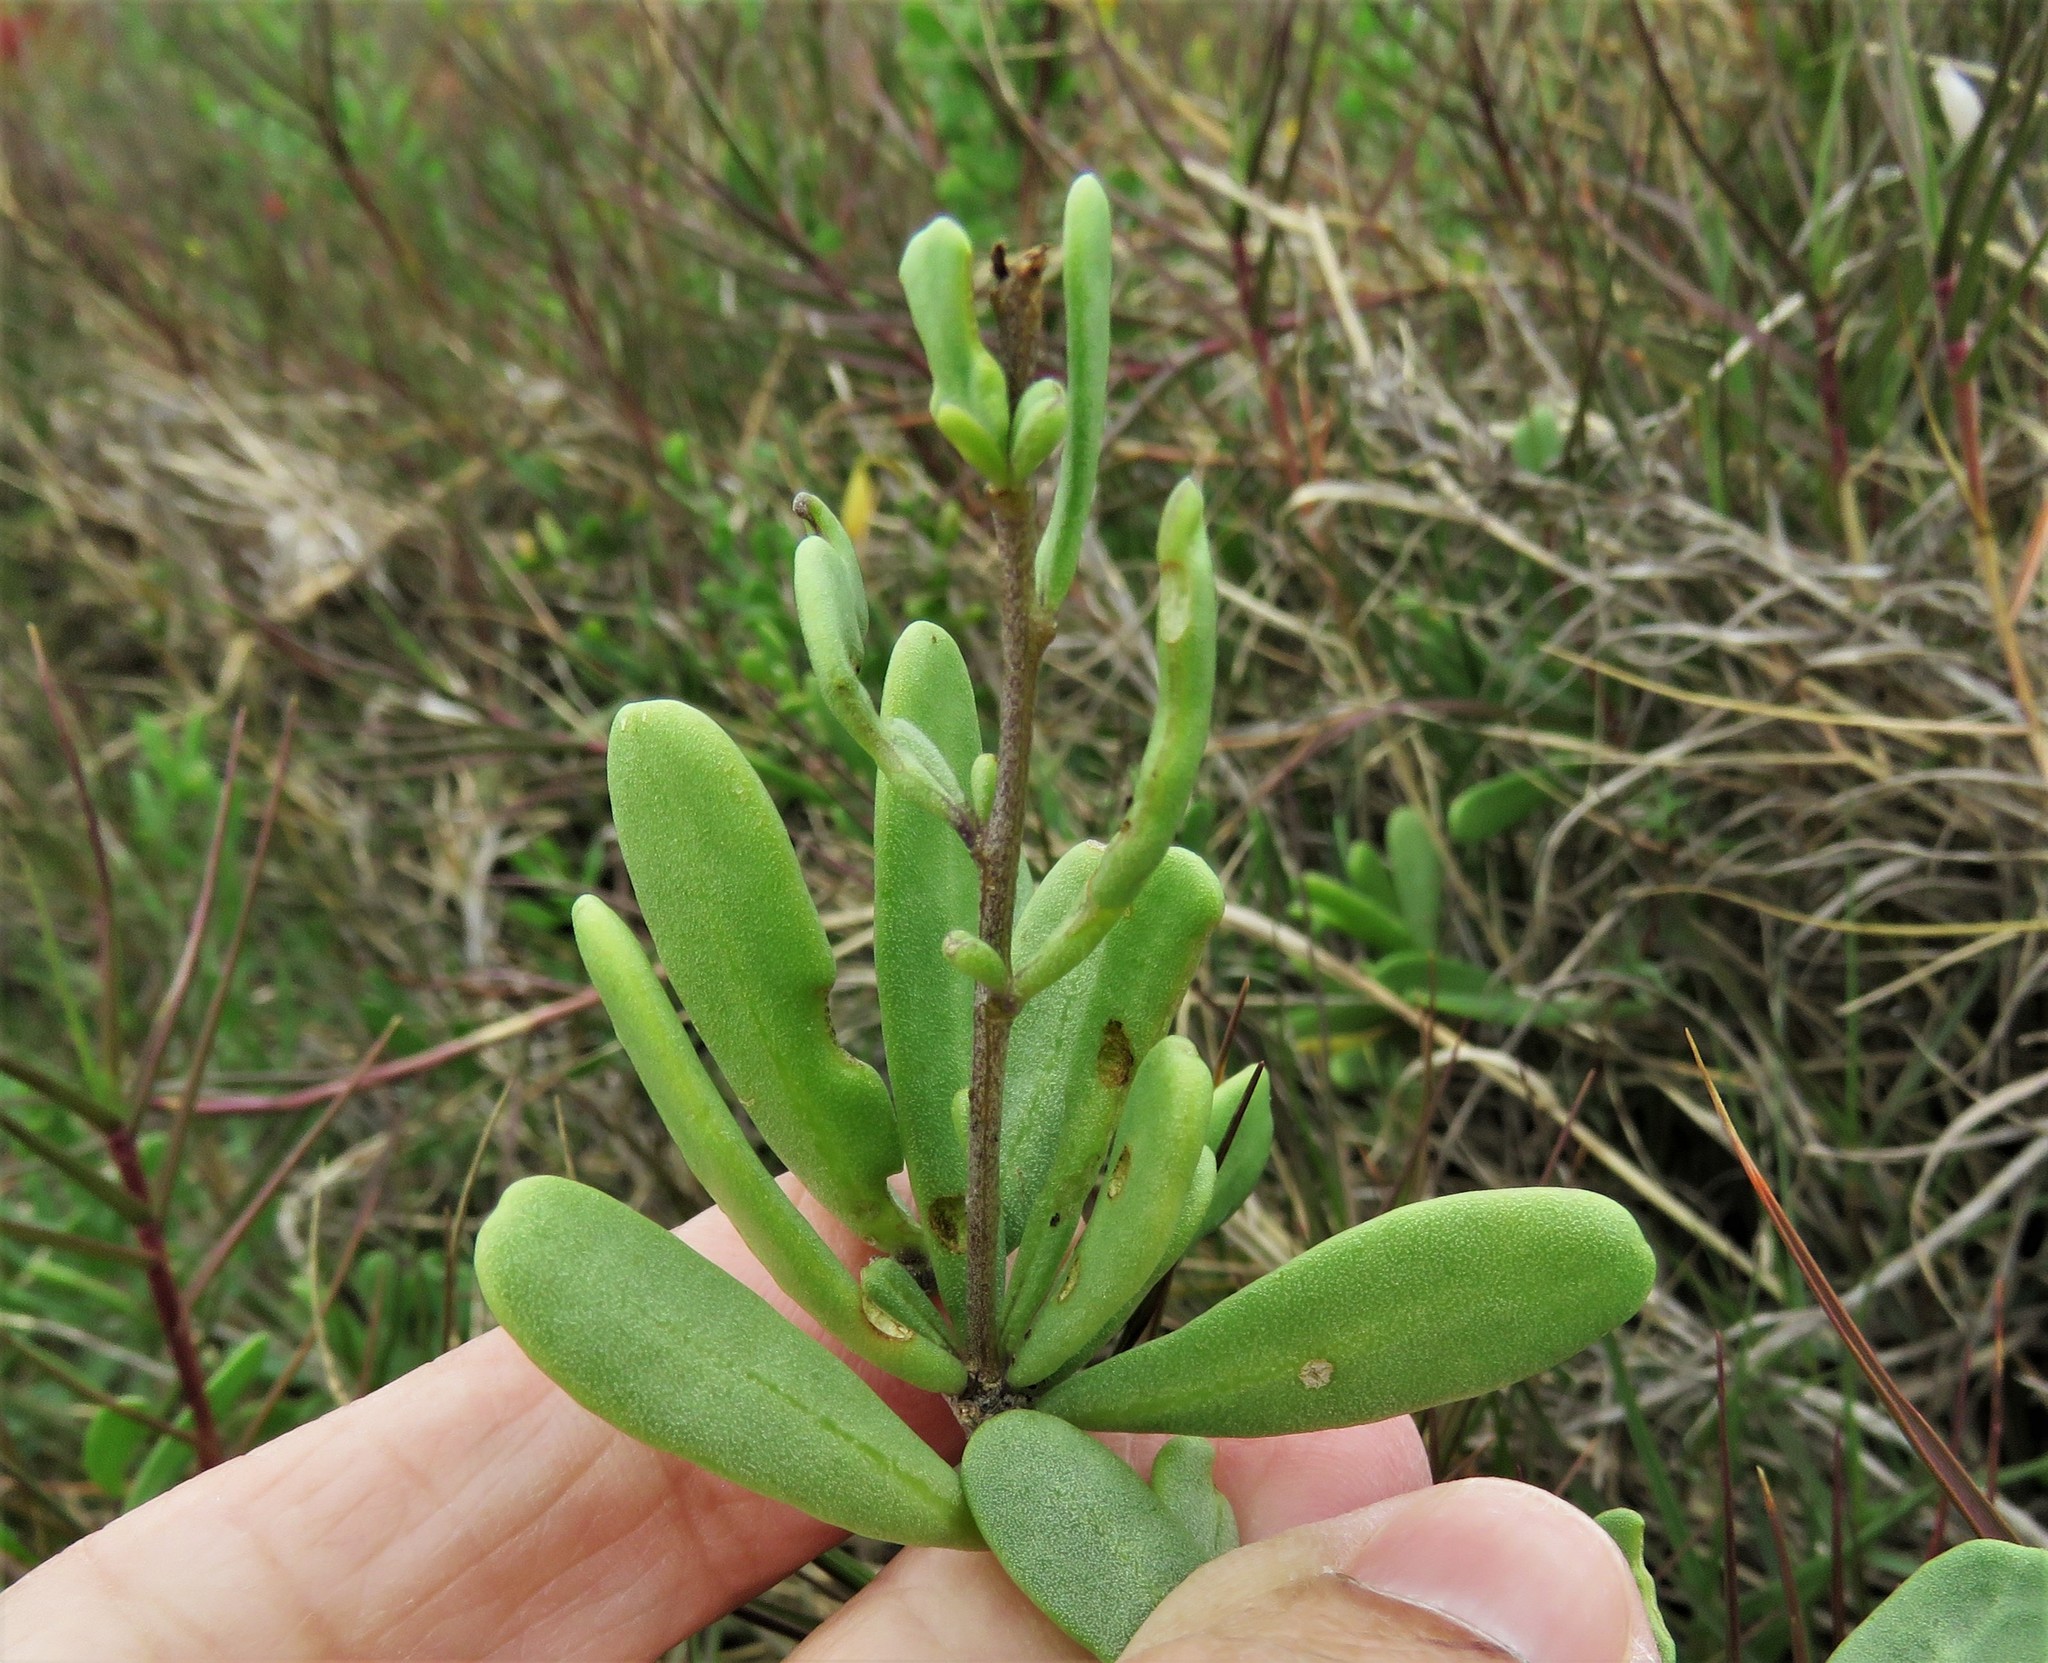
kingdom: Plantae
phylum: Tracheophyta
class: Magnoliopsida
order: Solanales
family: Solanaceae
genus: Lycium
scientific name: Lycium carolinianum
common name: Christmasberry
